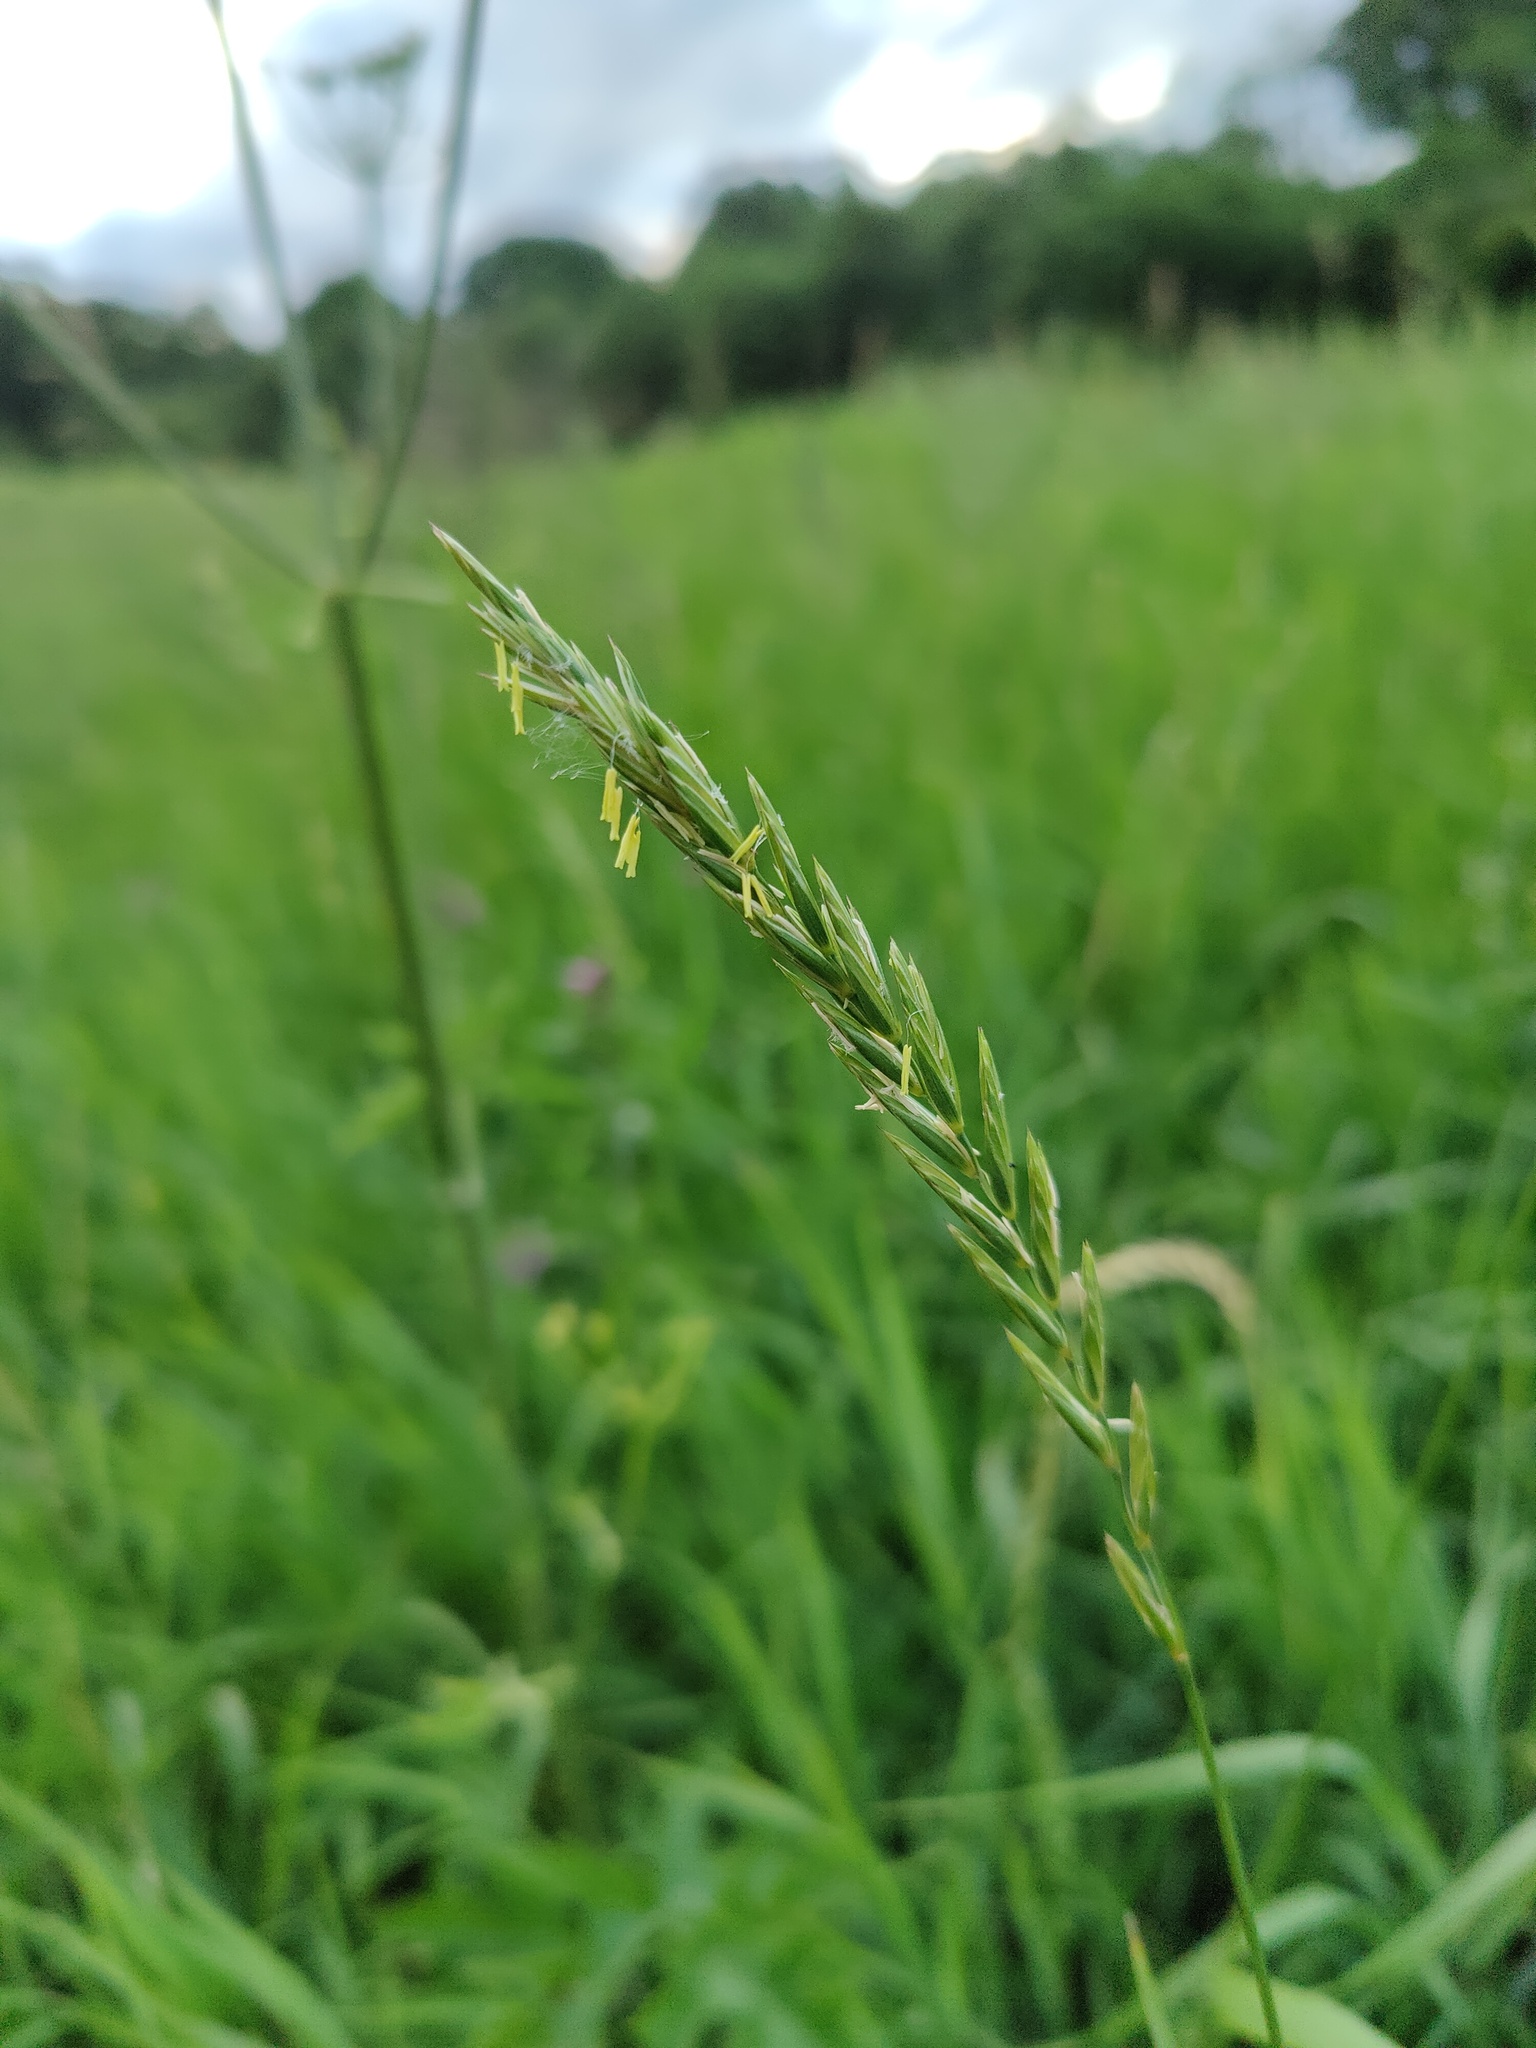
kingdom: Plantae
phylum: Tracheophyta
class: Liliopsida
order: Poales
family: Poaceae
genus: Elymus
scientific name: Elymus repens
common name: Quackgrass
